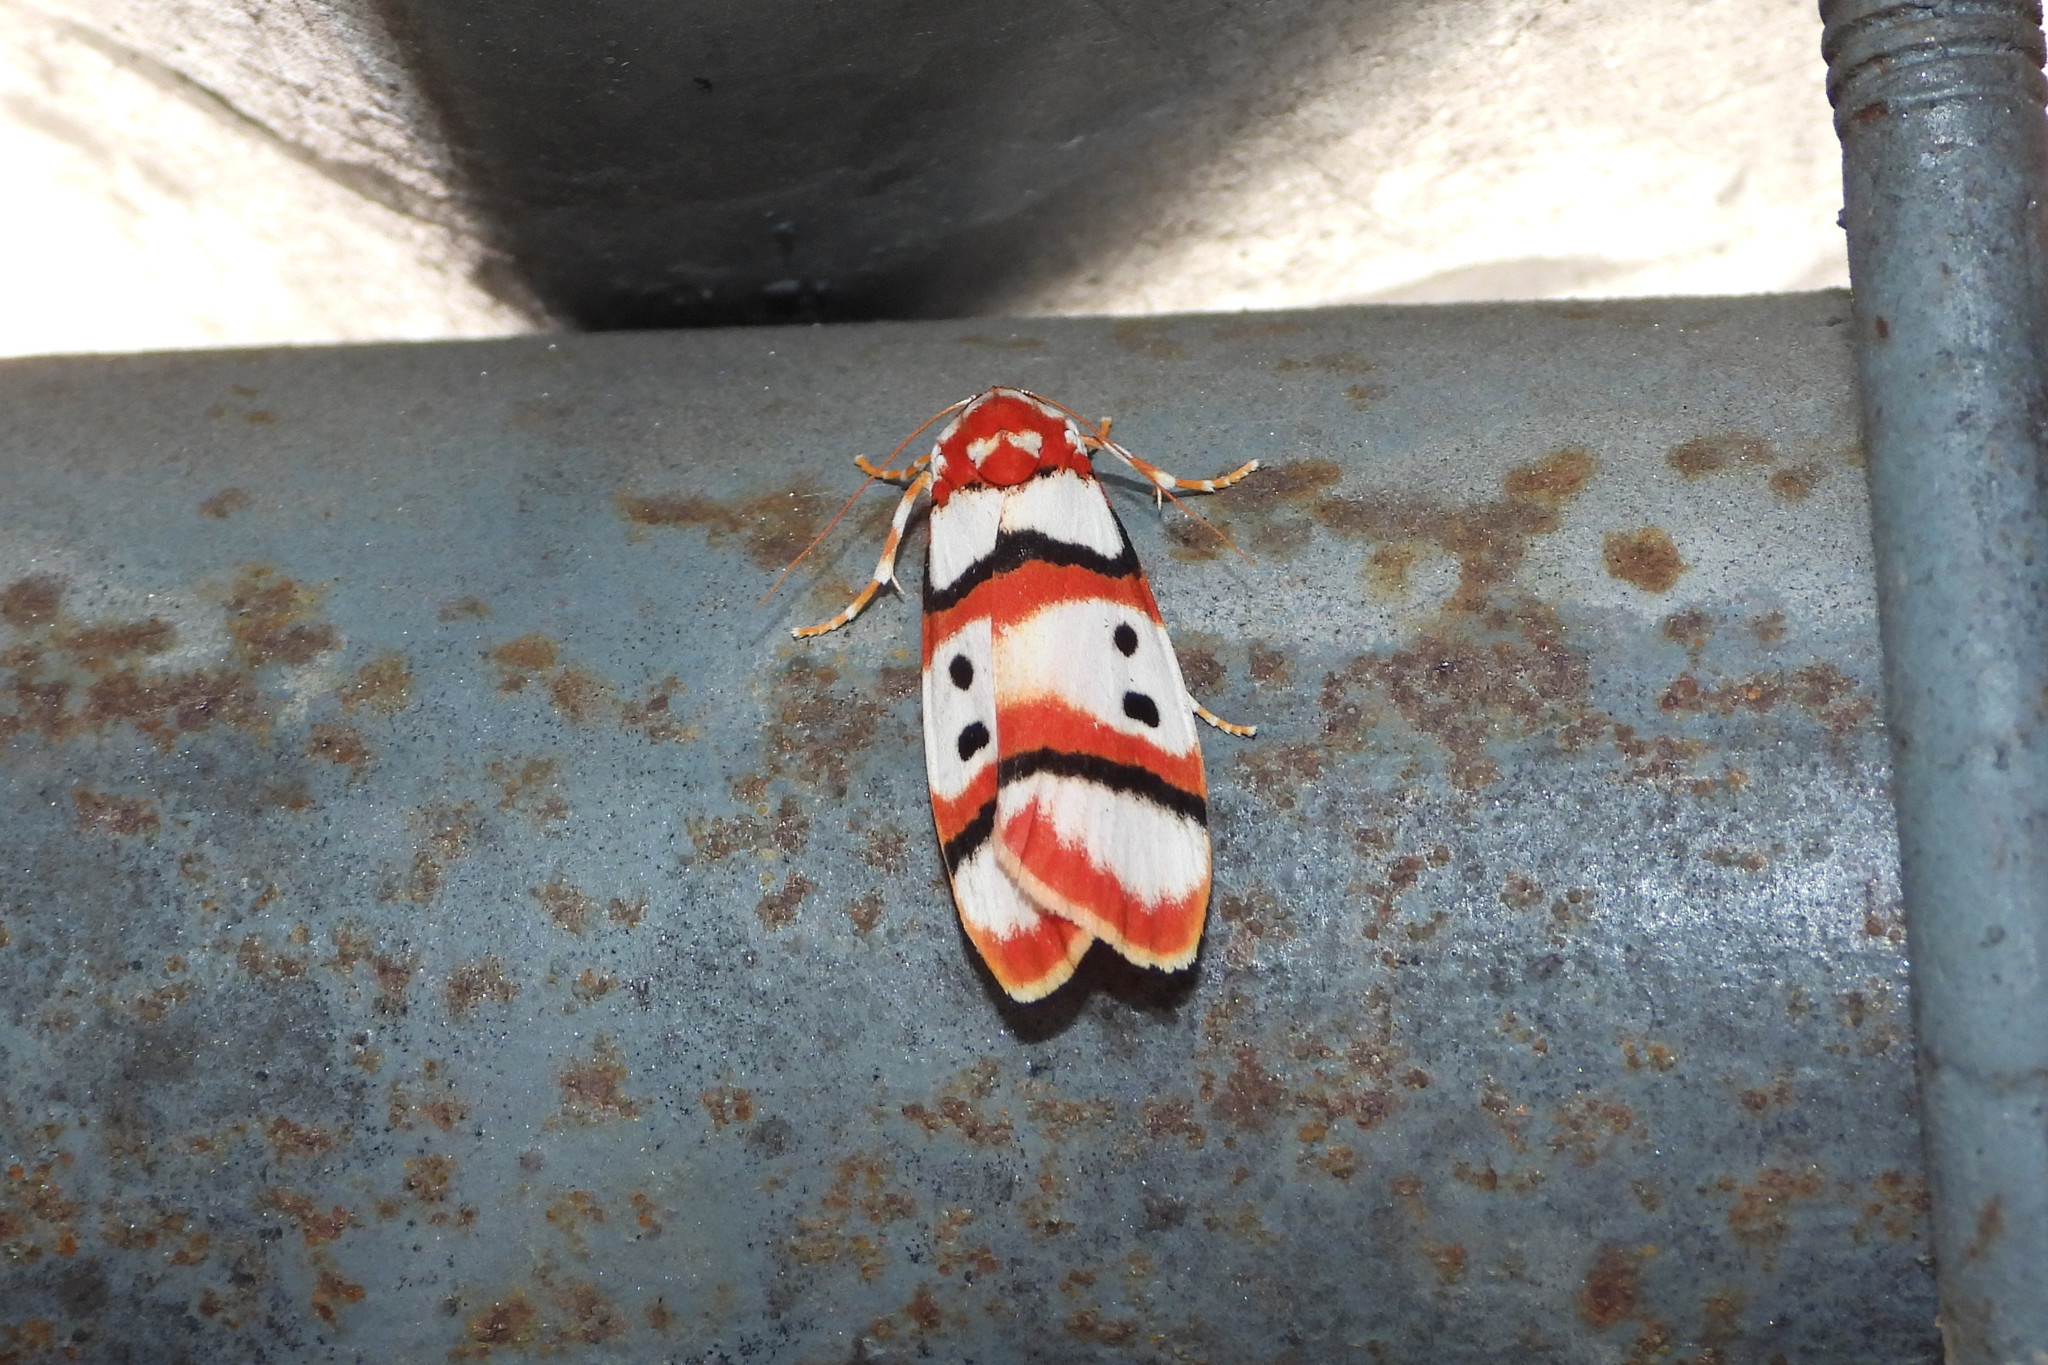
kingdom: Animalia
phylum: Arthropoda
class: Insecta
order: Lepidoptera
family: Erebidae
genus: Cyana
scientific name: Cyana coccinea
